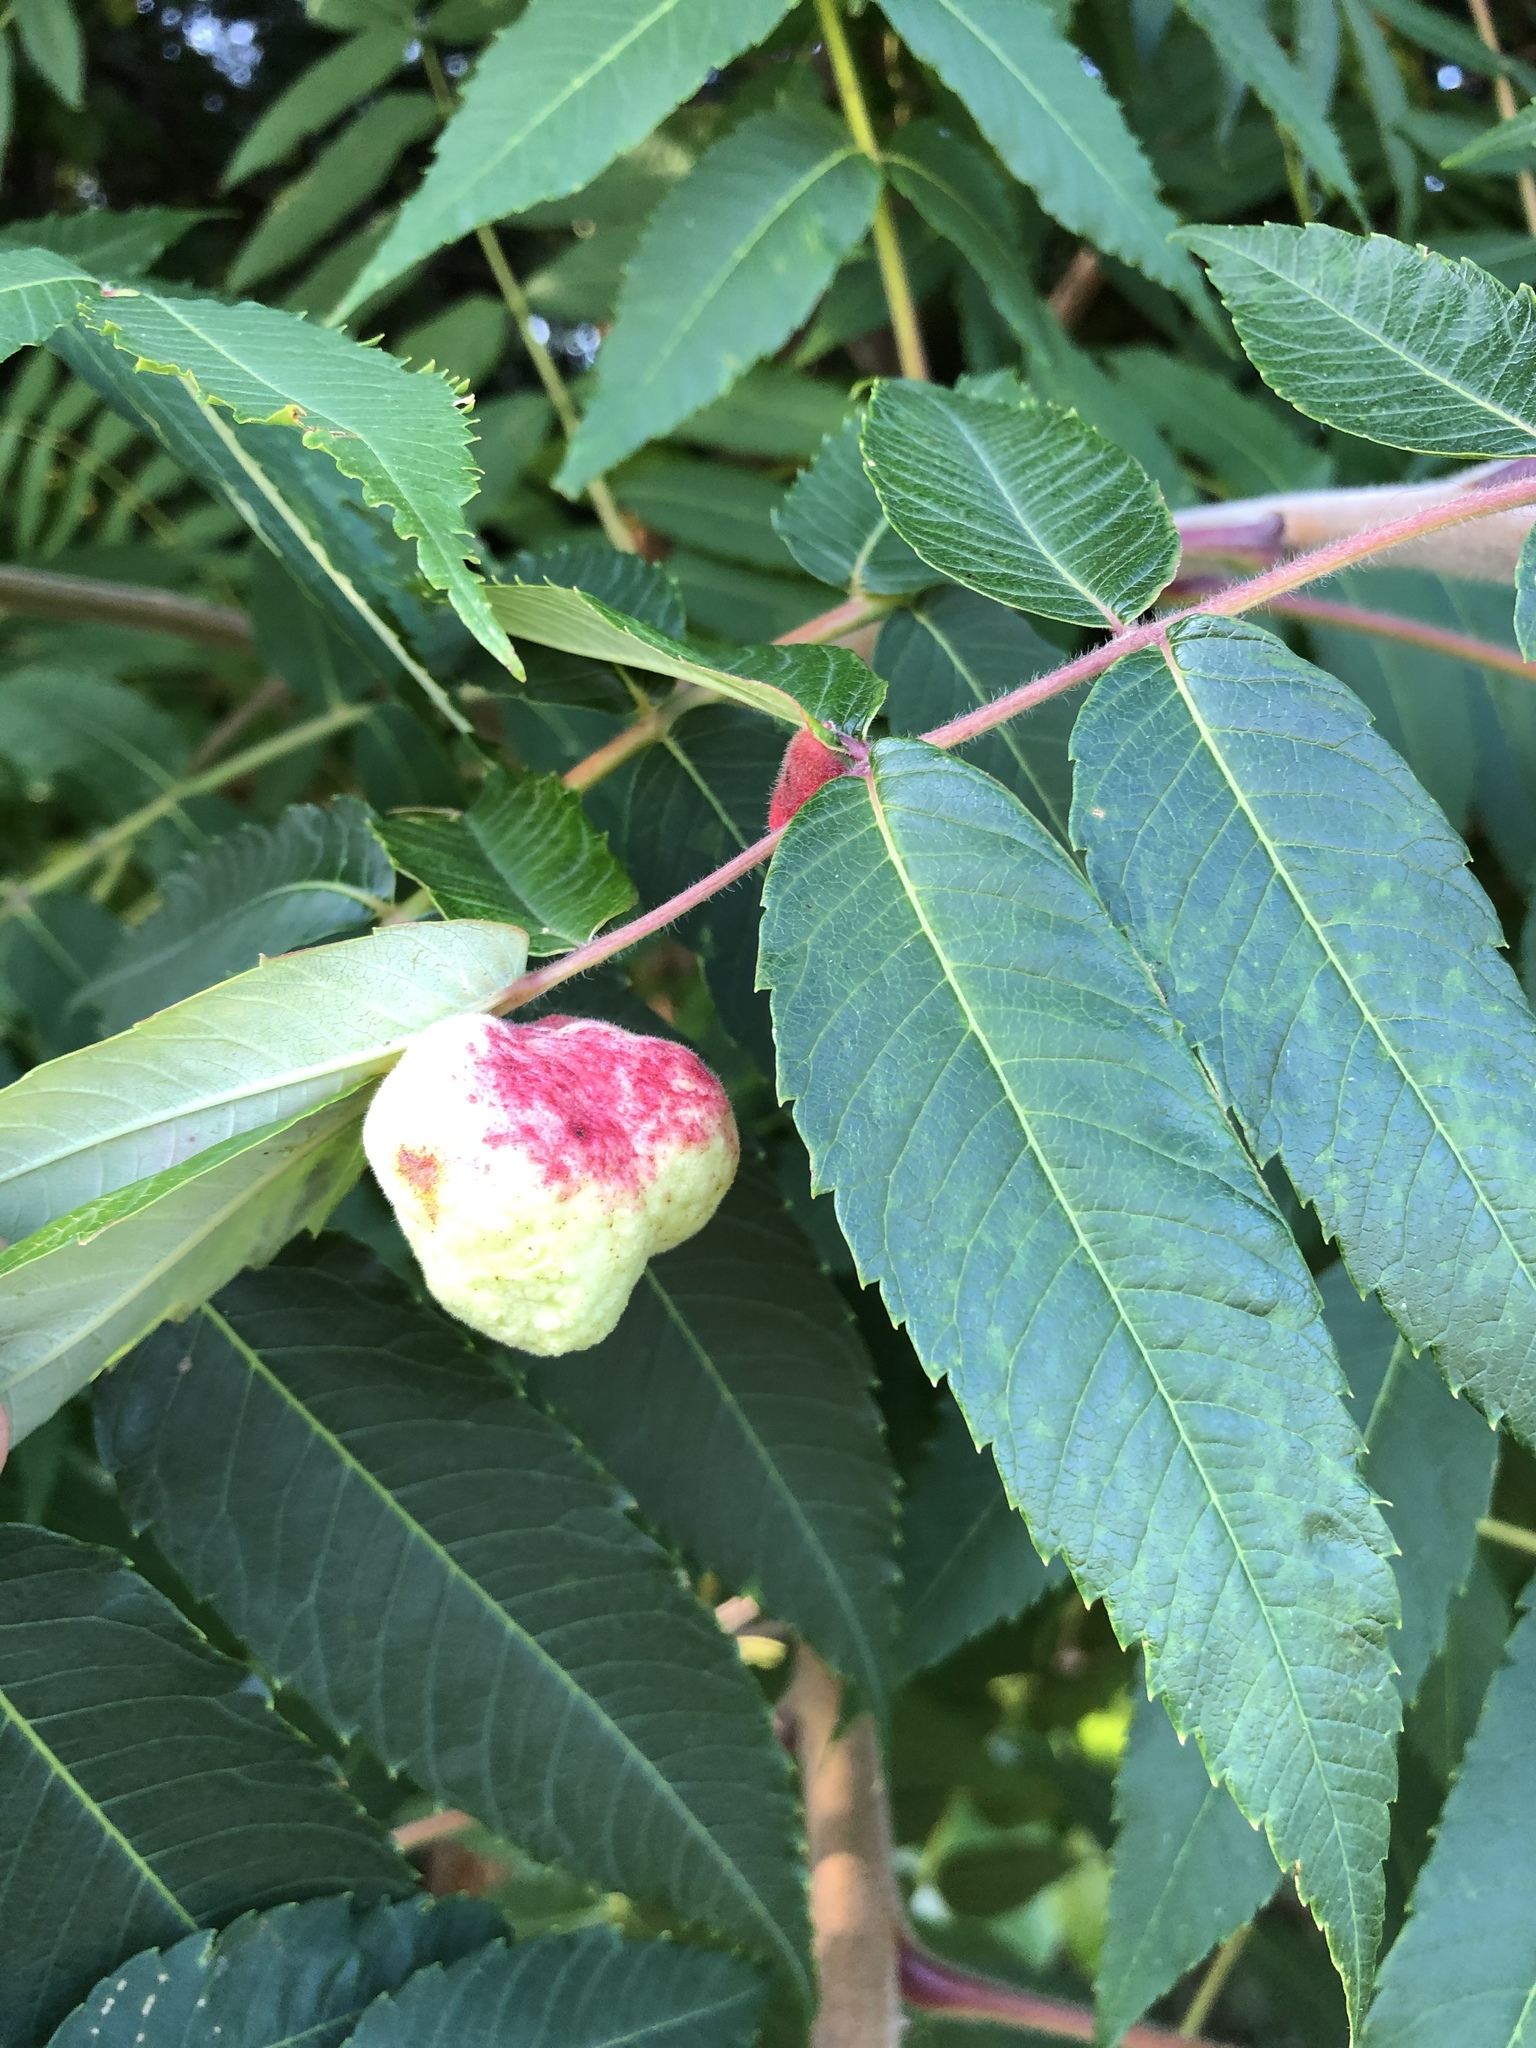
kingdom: Animalia
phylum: Arthropoda
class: Insecta
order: Hemiptera
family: Aphididae
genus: Melaphis
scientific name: Melaphis rhois
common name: Sumac gall aphid
